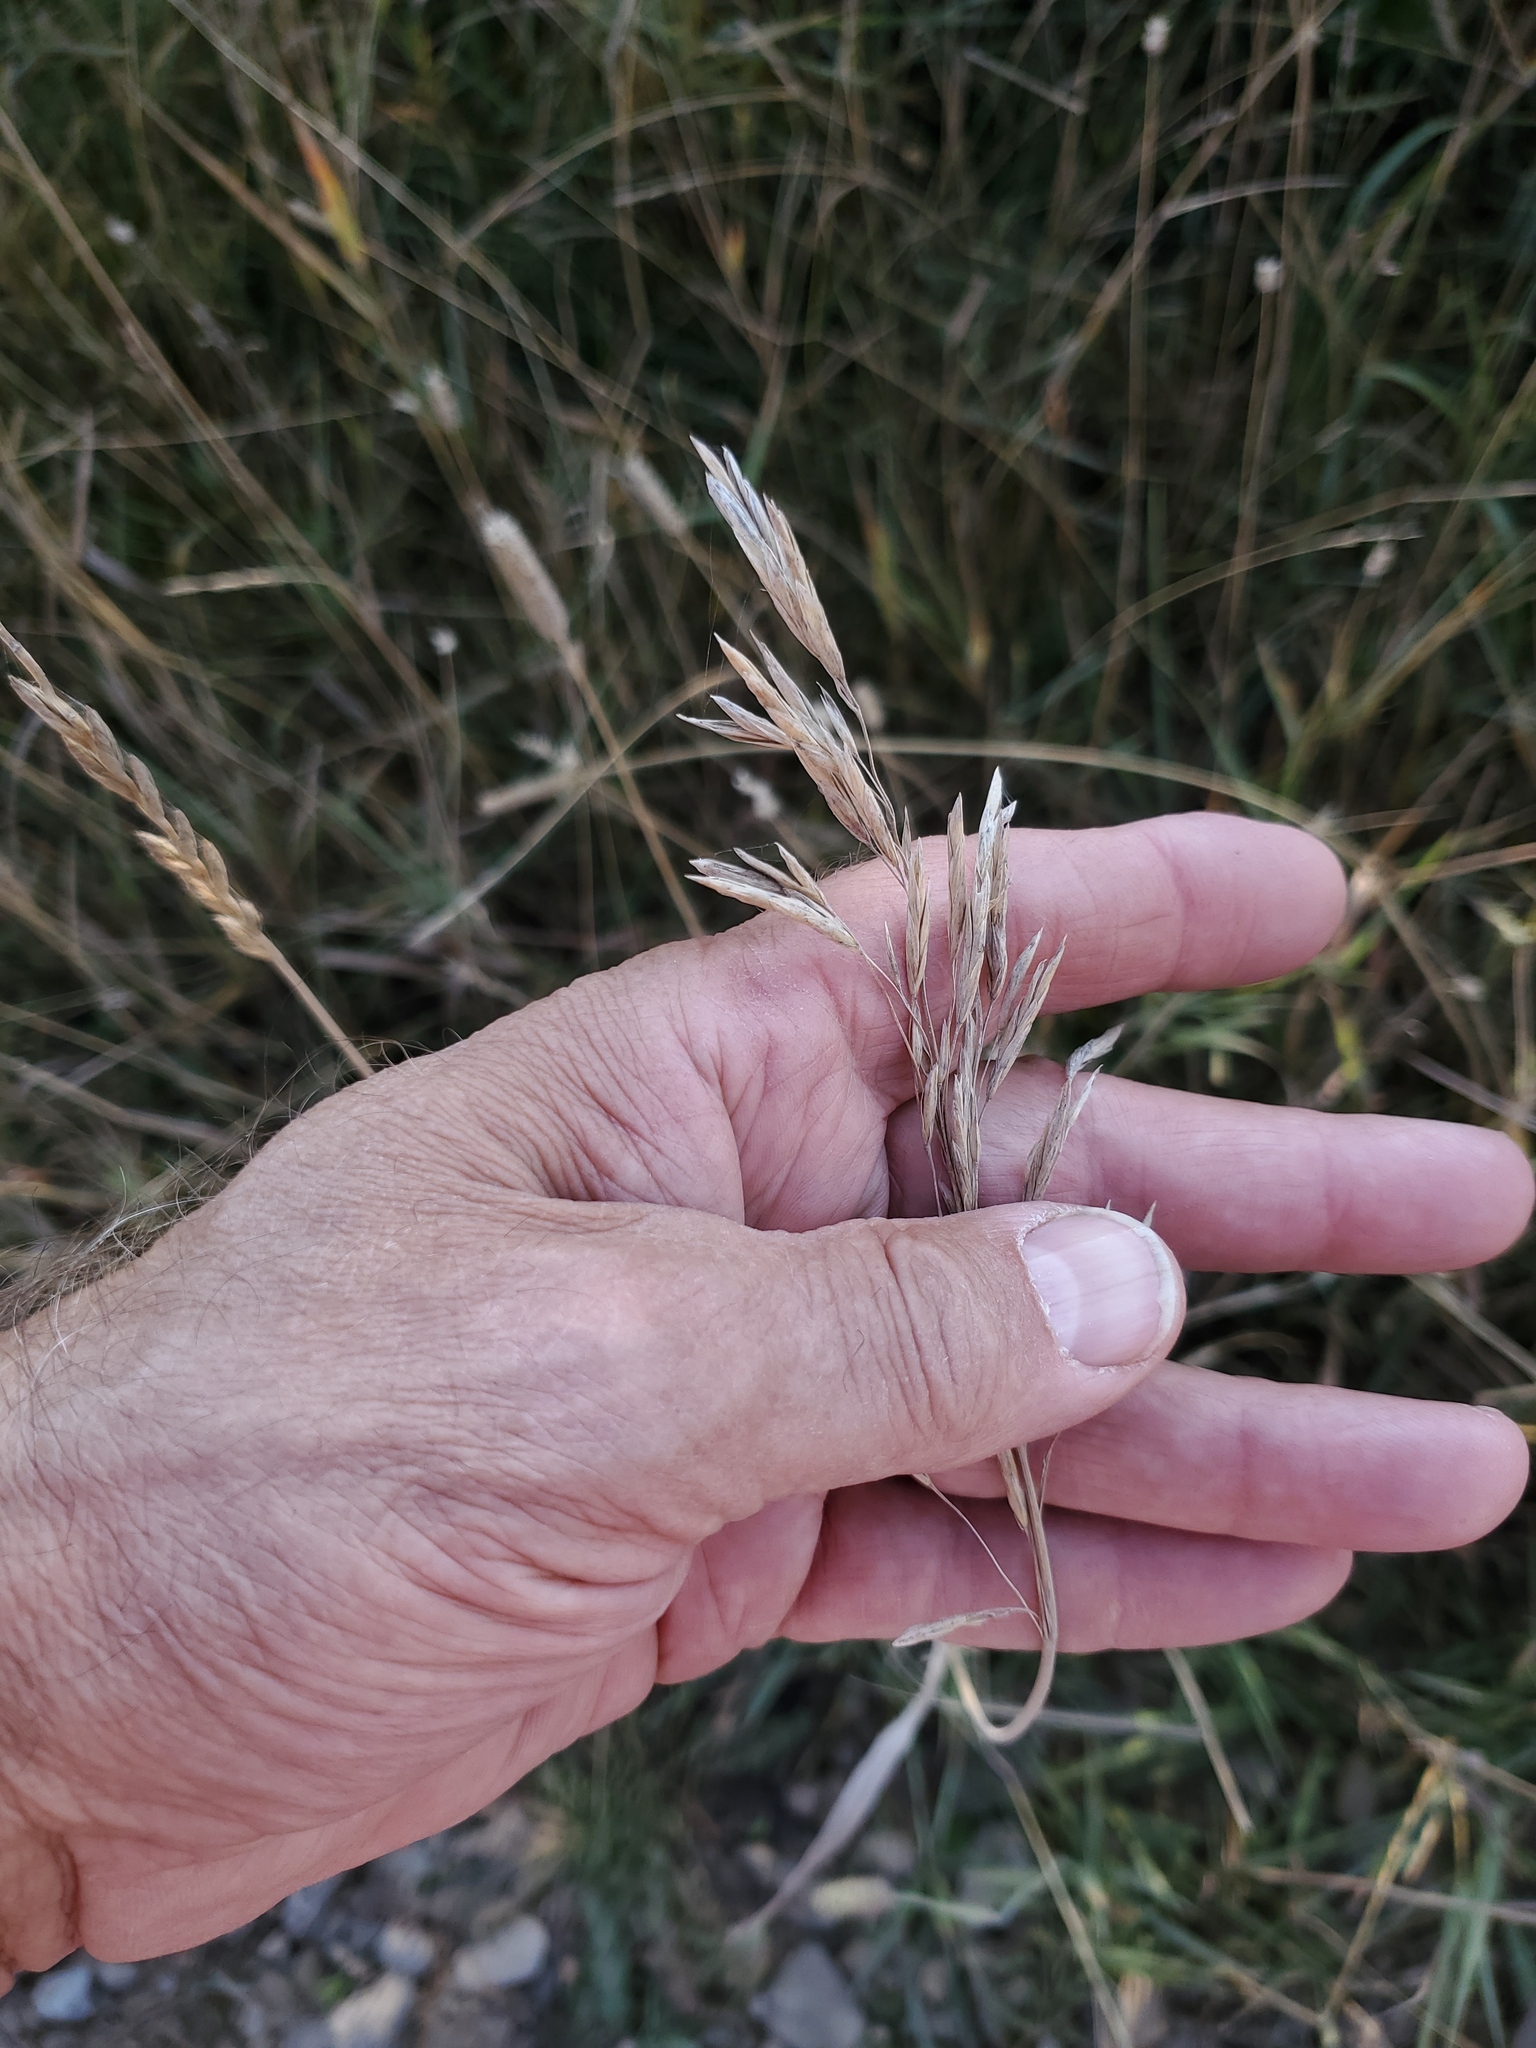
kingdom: Plantae
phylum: Tracheophyta
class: Liliopsida
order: Poales
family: Poaceae
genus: Bromus
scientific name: Bromus inermis
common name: Smooth brome
